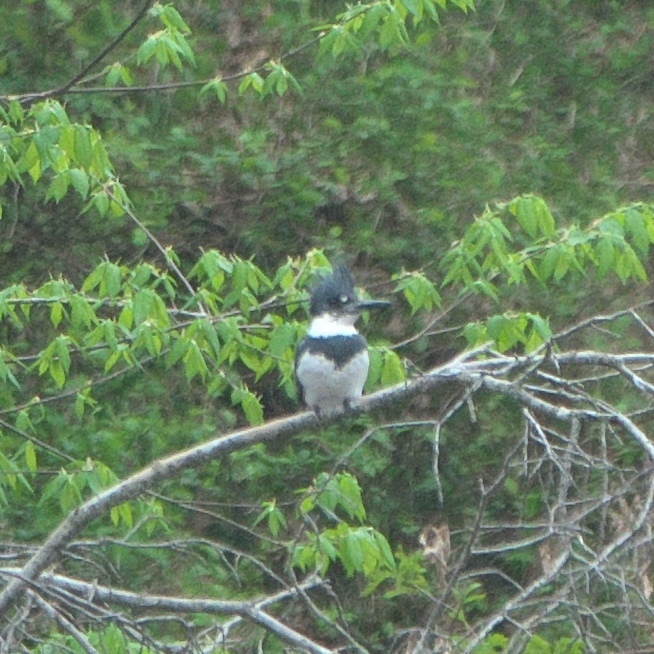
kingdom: Animalia
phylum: Chordata
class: Aves
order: Coraciiformes
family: Alcedinidae
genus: Megaceryle
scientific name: Megaceryle alcyon
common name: Belted kingfisher
